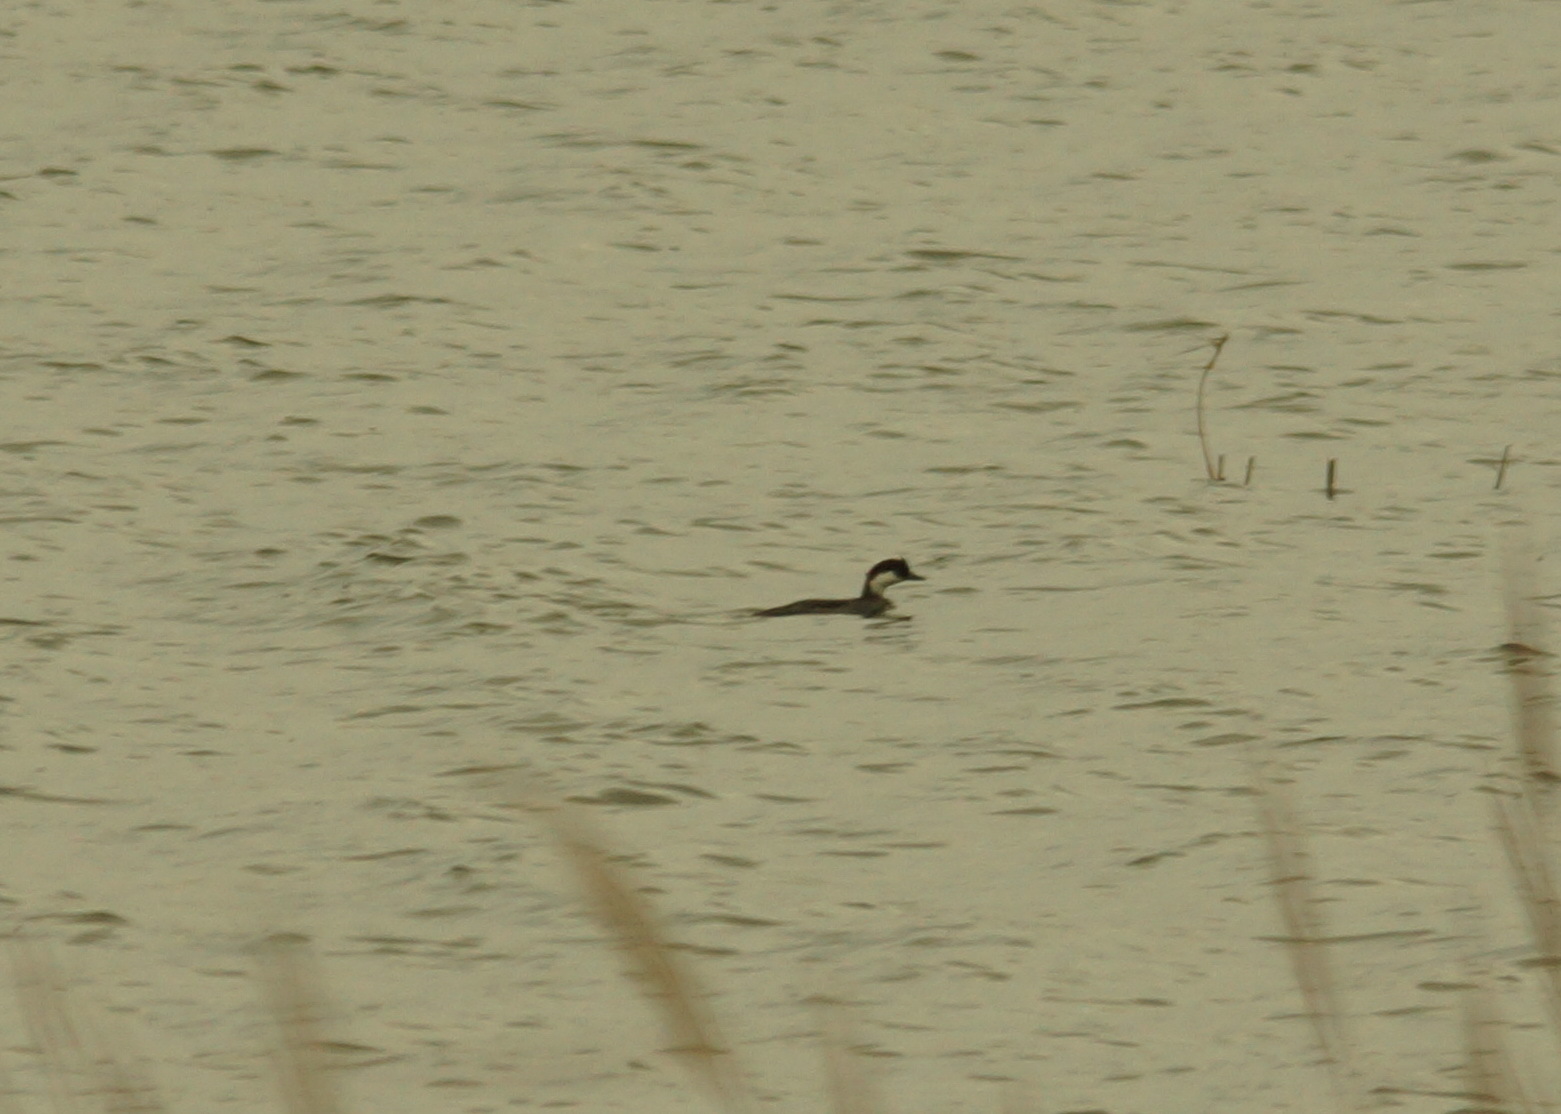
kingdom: Animalia
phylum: Chordata
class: Aves
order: Anseriformes
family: Anatidae
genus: Mergellus
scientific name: Mergellus albellus
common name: Smew
